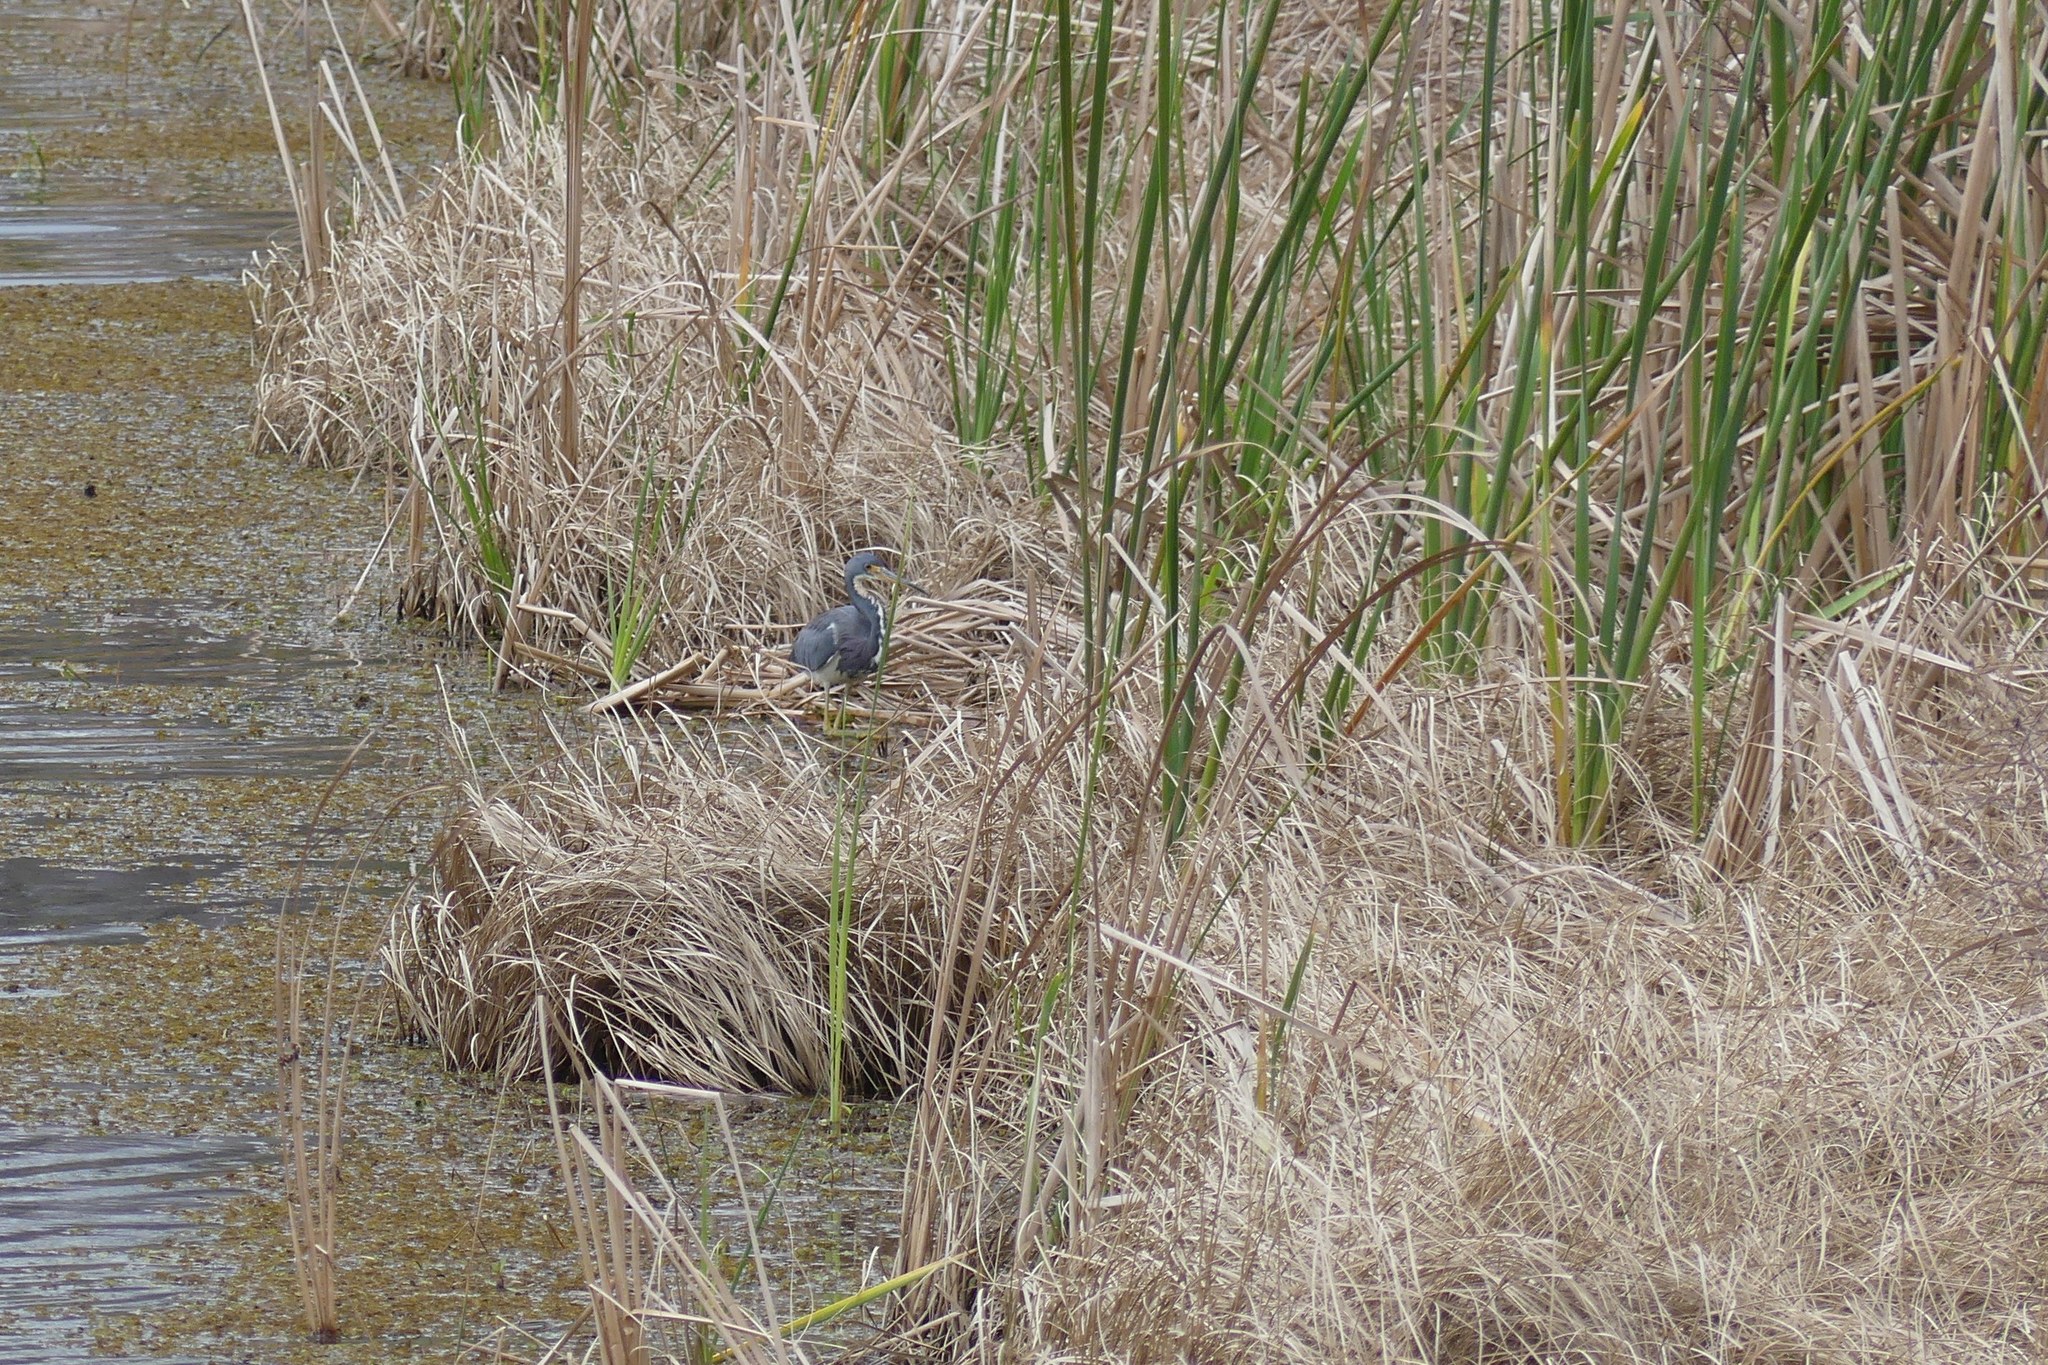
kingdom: Animalia
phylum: Chordata
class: Aves
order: Pelecaniformes
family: Ardeidae
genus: Egretta
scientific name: Egretta tricolor
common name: Tricolored heron
